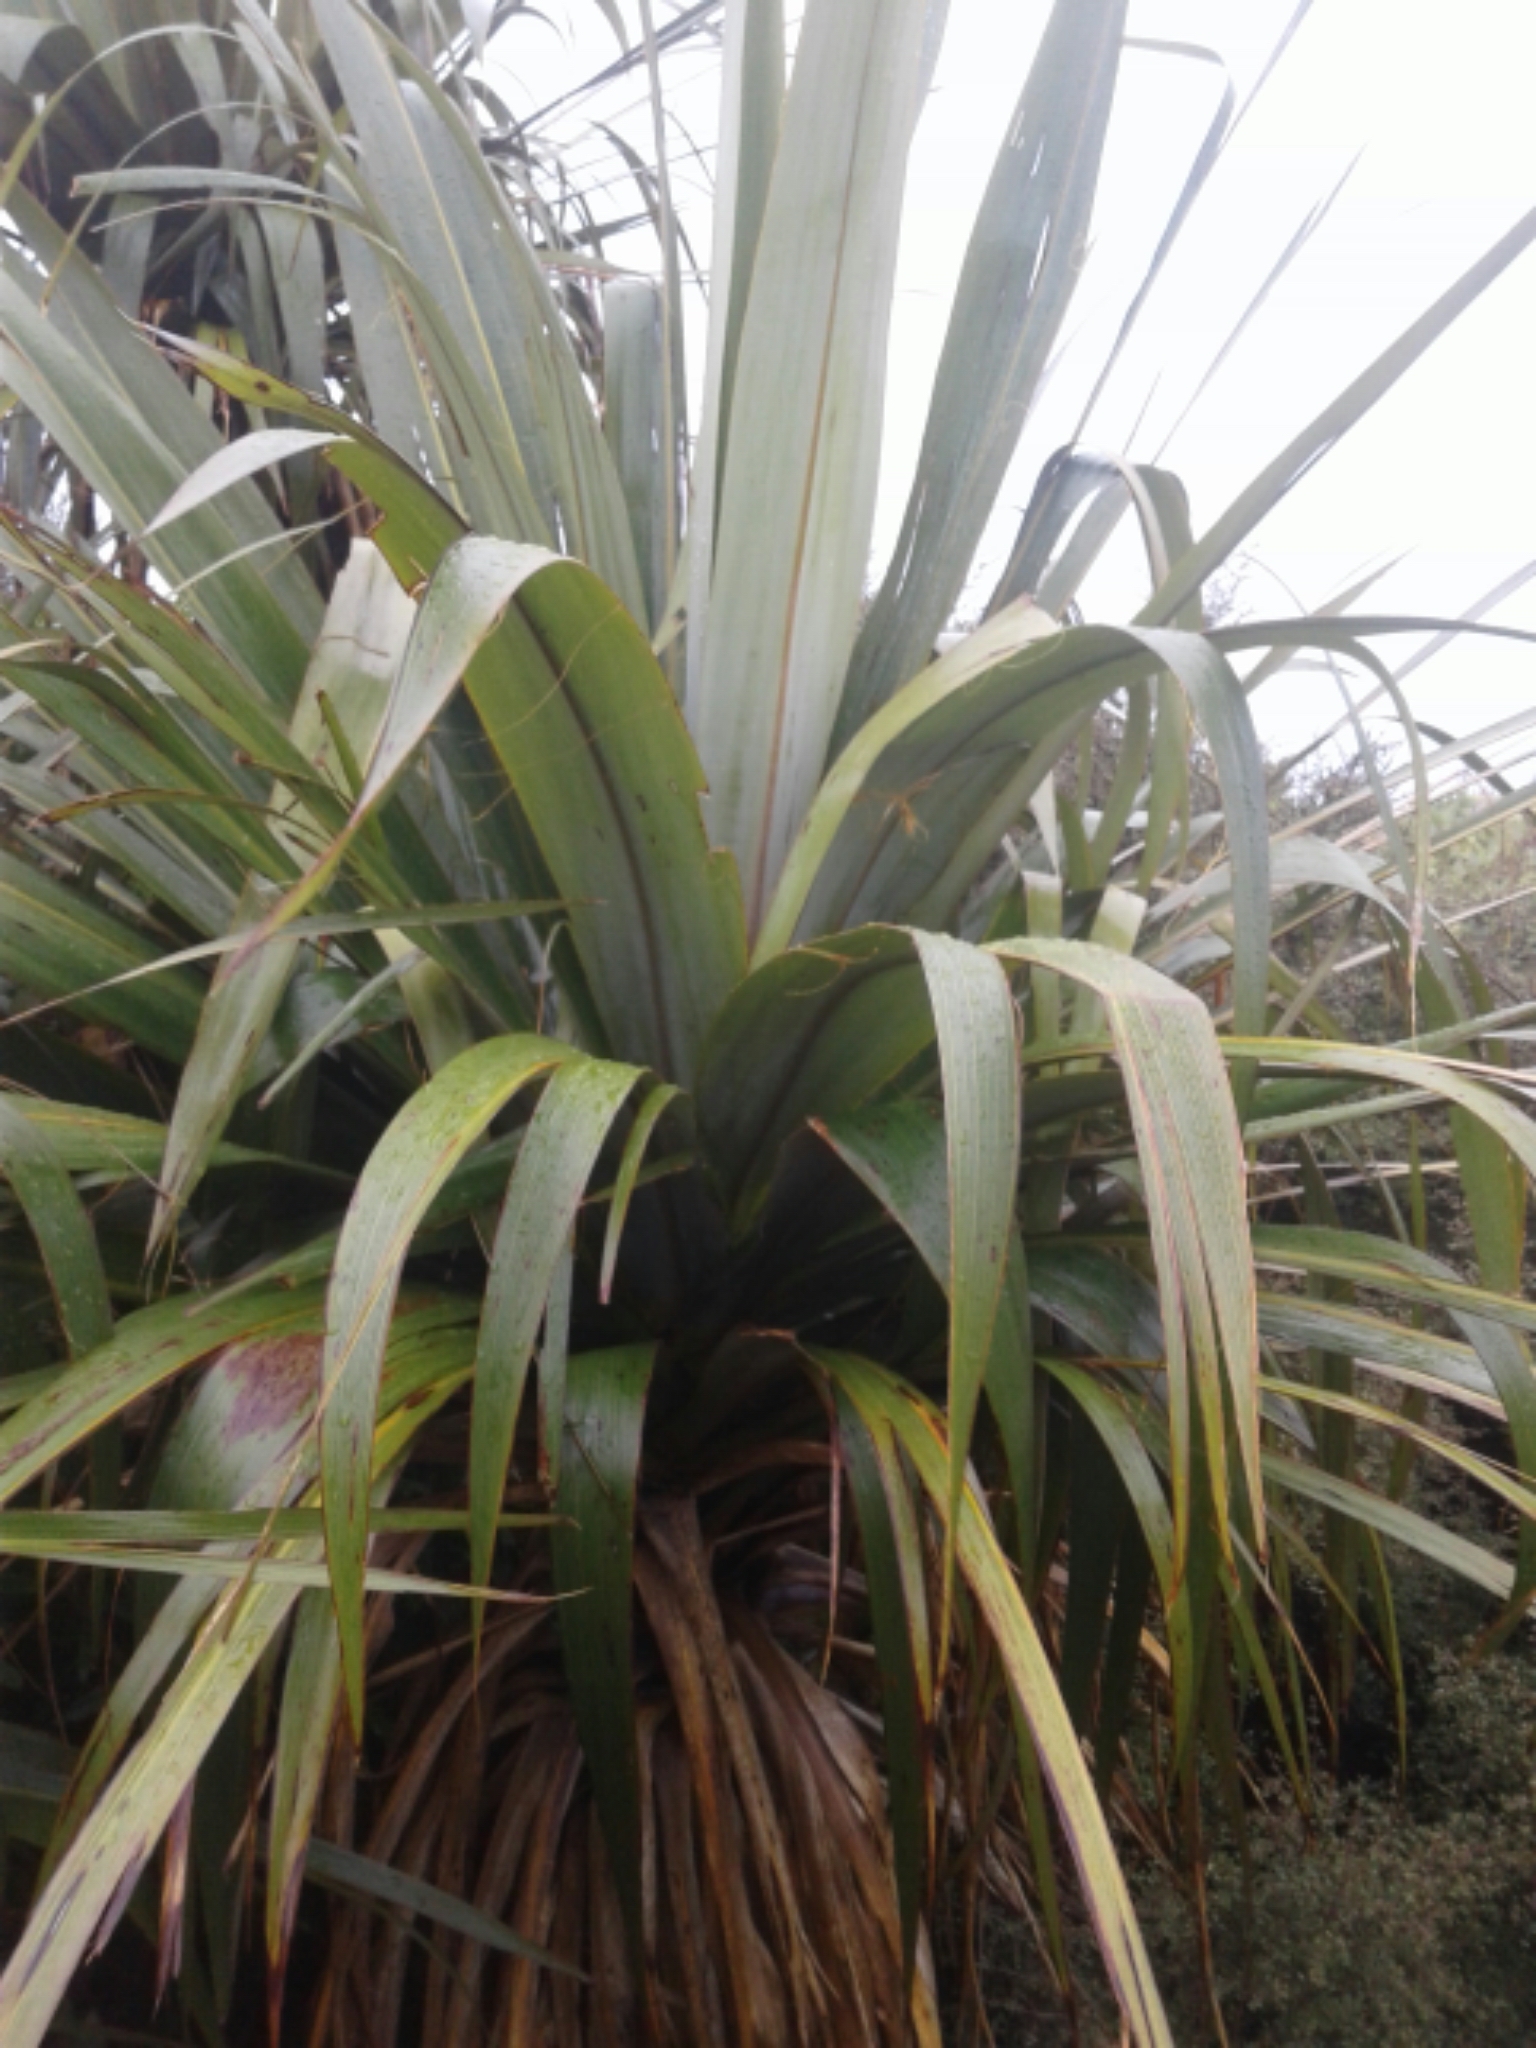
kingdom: Plantae
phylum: Tracheophyta
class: Liliopsida
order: Asparagales
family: Asparagaceae
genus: Cordyline
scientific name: Cordyline indivisa
